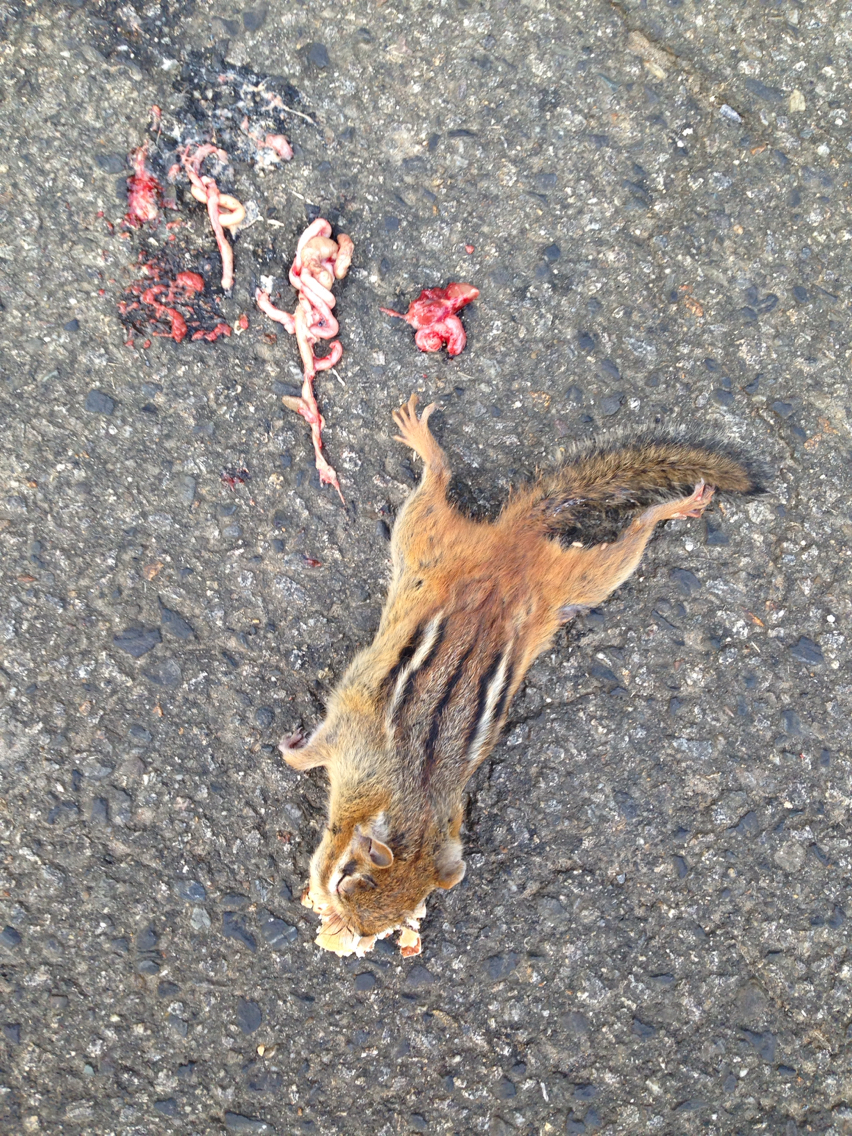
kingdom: Animalia
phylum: Chordata
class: Mammalia
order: Rodentia
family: Sciuridae
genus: Tamias
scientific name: Tamias striatus
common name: Eastern chipmunk
